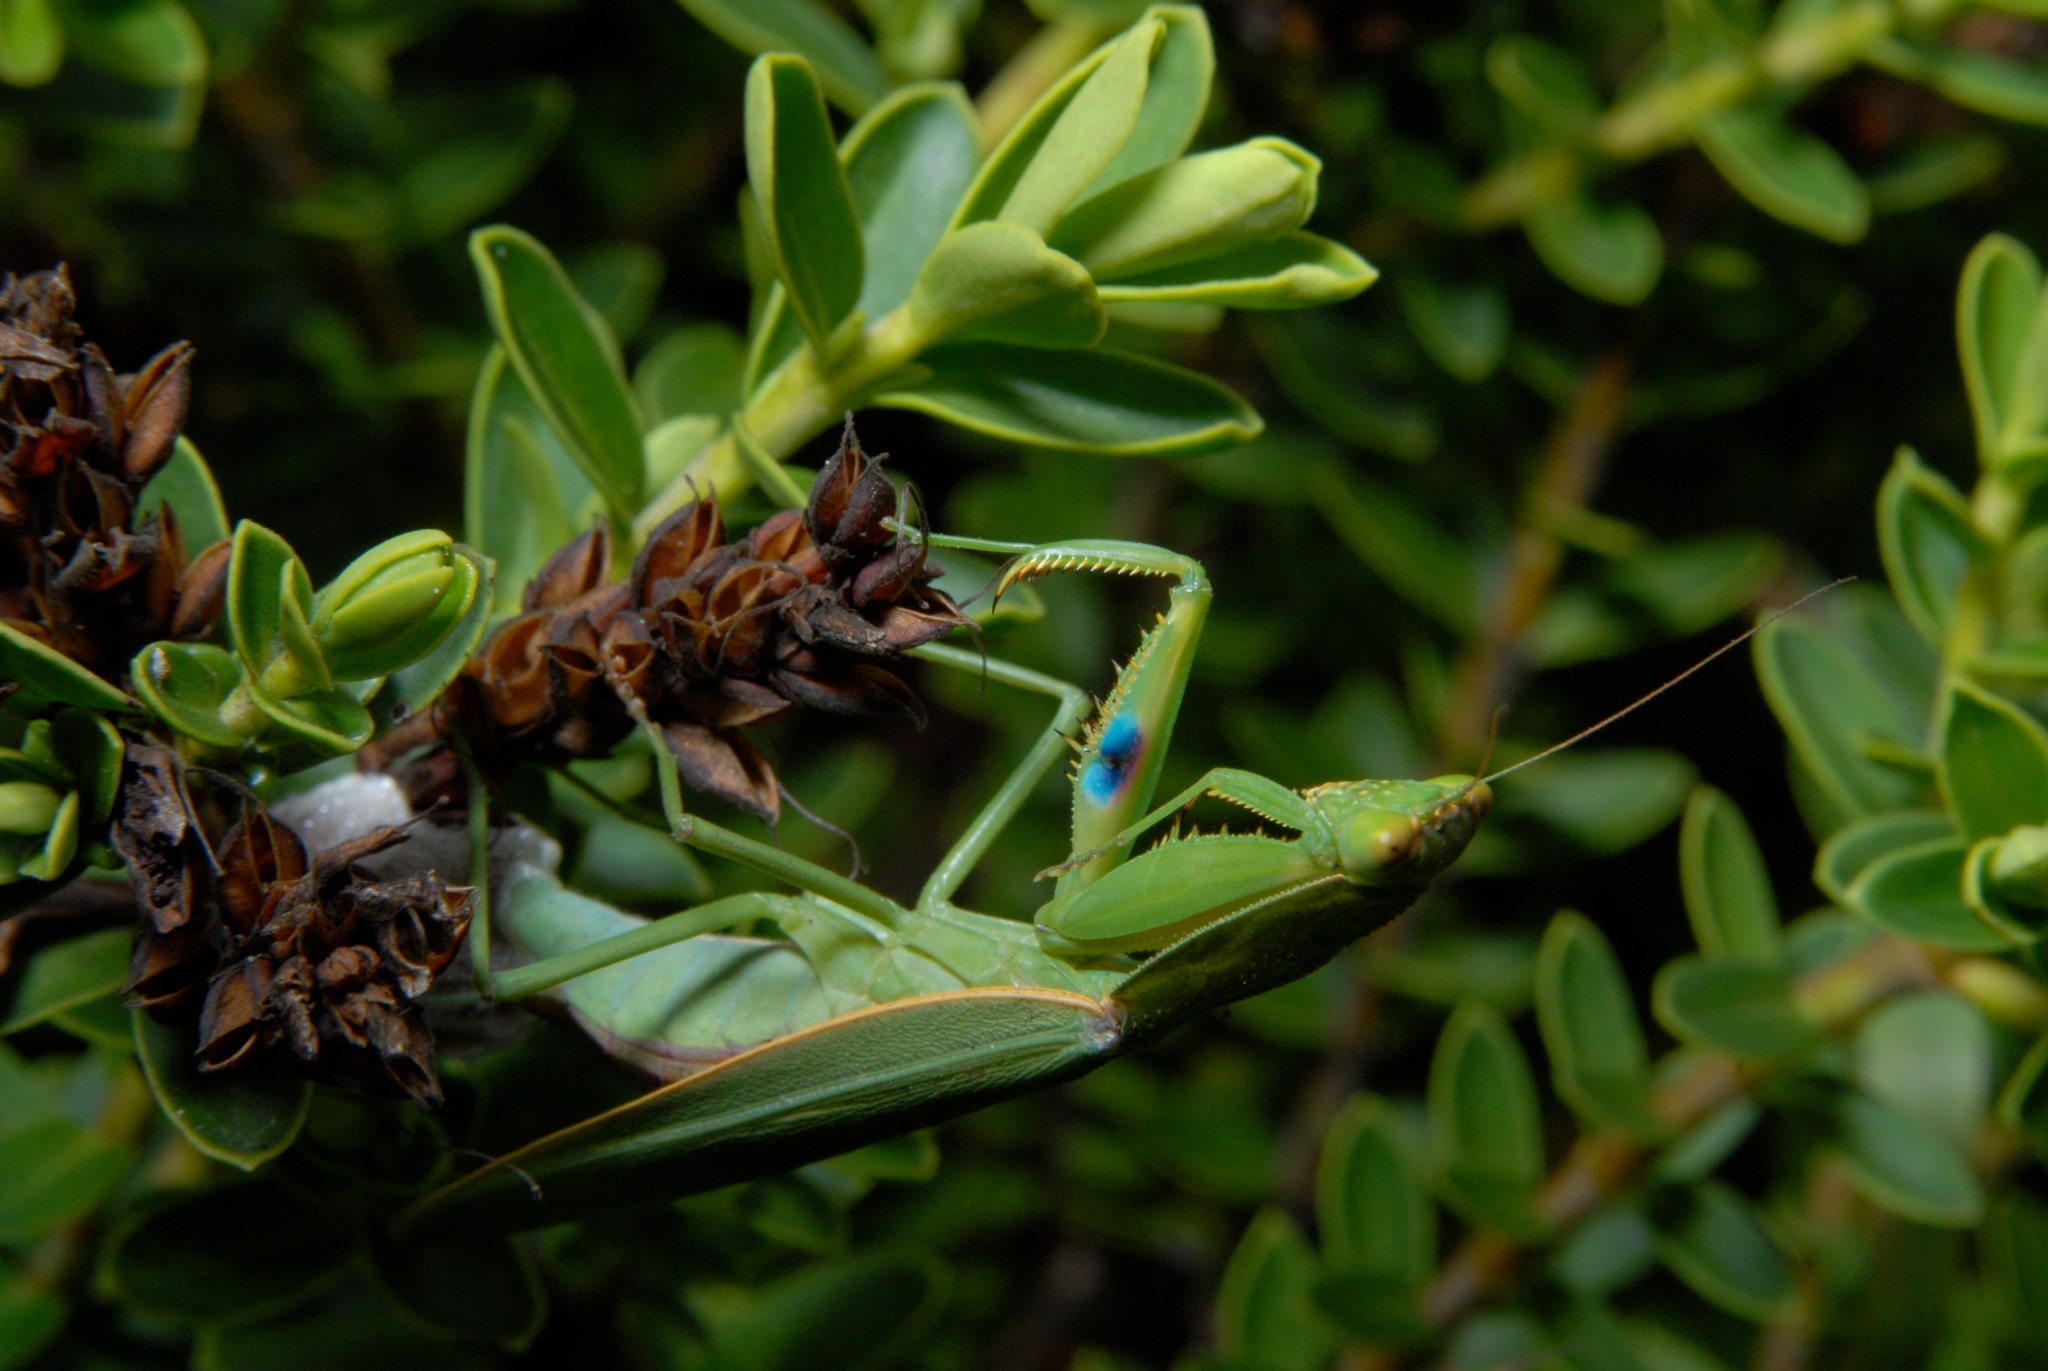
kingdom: Animalia
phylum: Arthropoda
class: Insecta
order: Mantodea
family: Mantidae
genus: Orthodera
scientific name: Orthodera novaezealandiae
